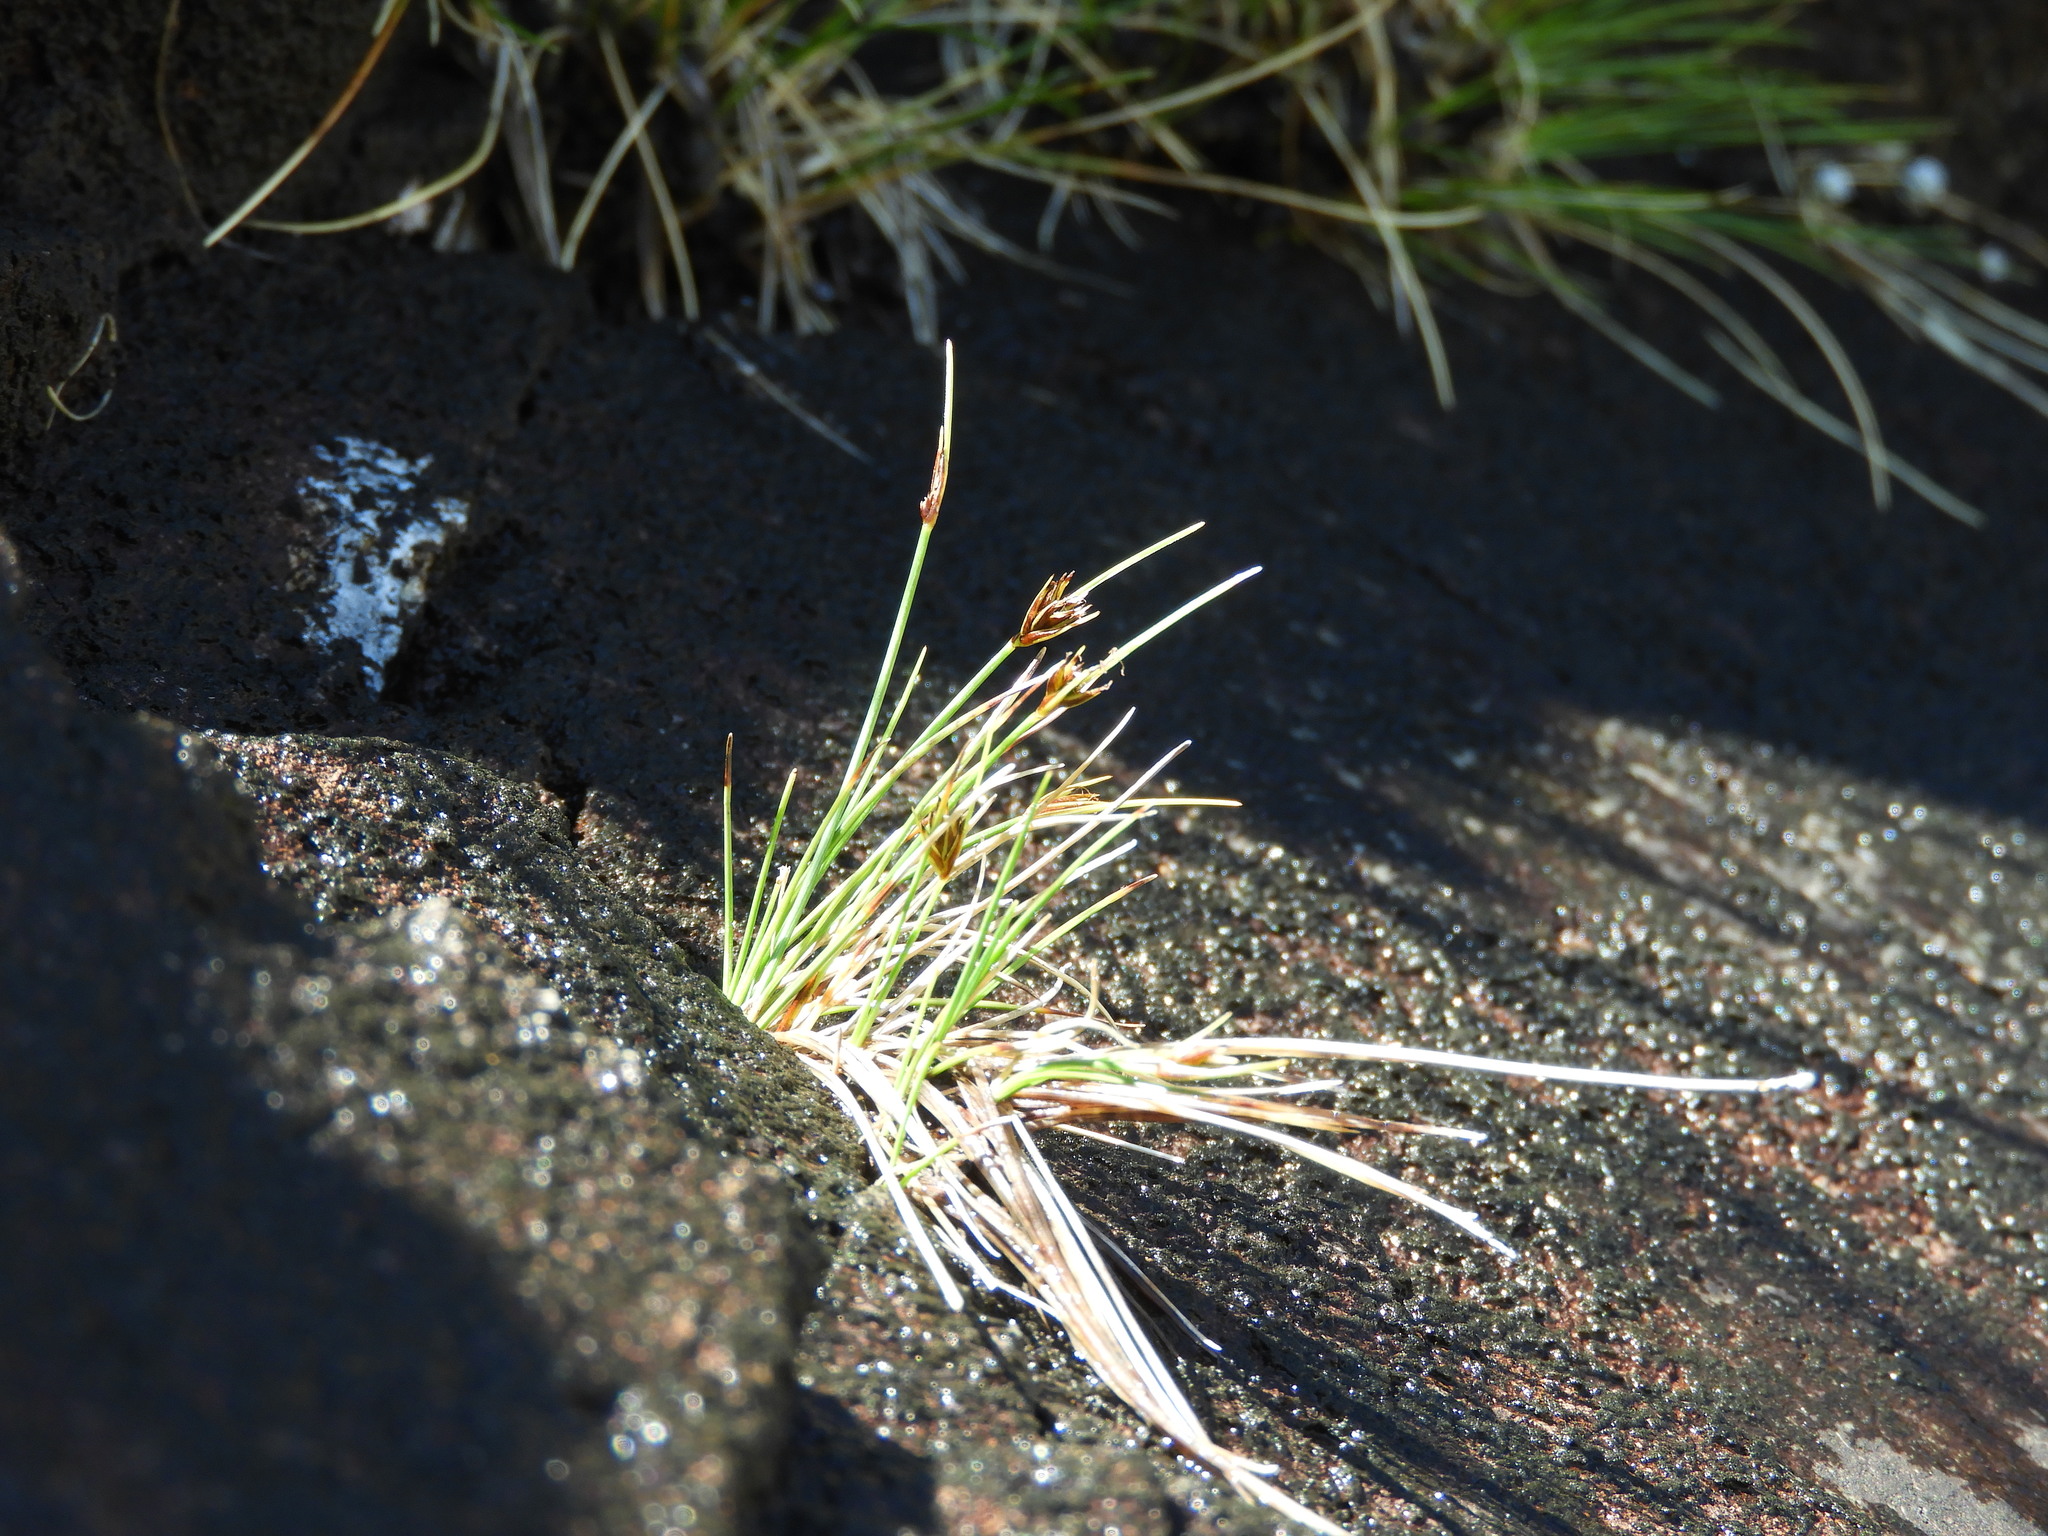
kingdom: Plantae
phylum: Tracheophyta
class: Liliopsida
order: Poales
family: Cyperaceae
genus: Carex
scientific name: Carex acicularis
